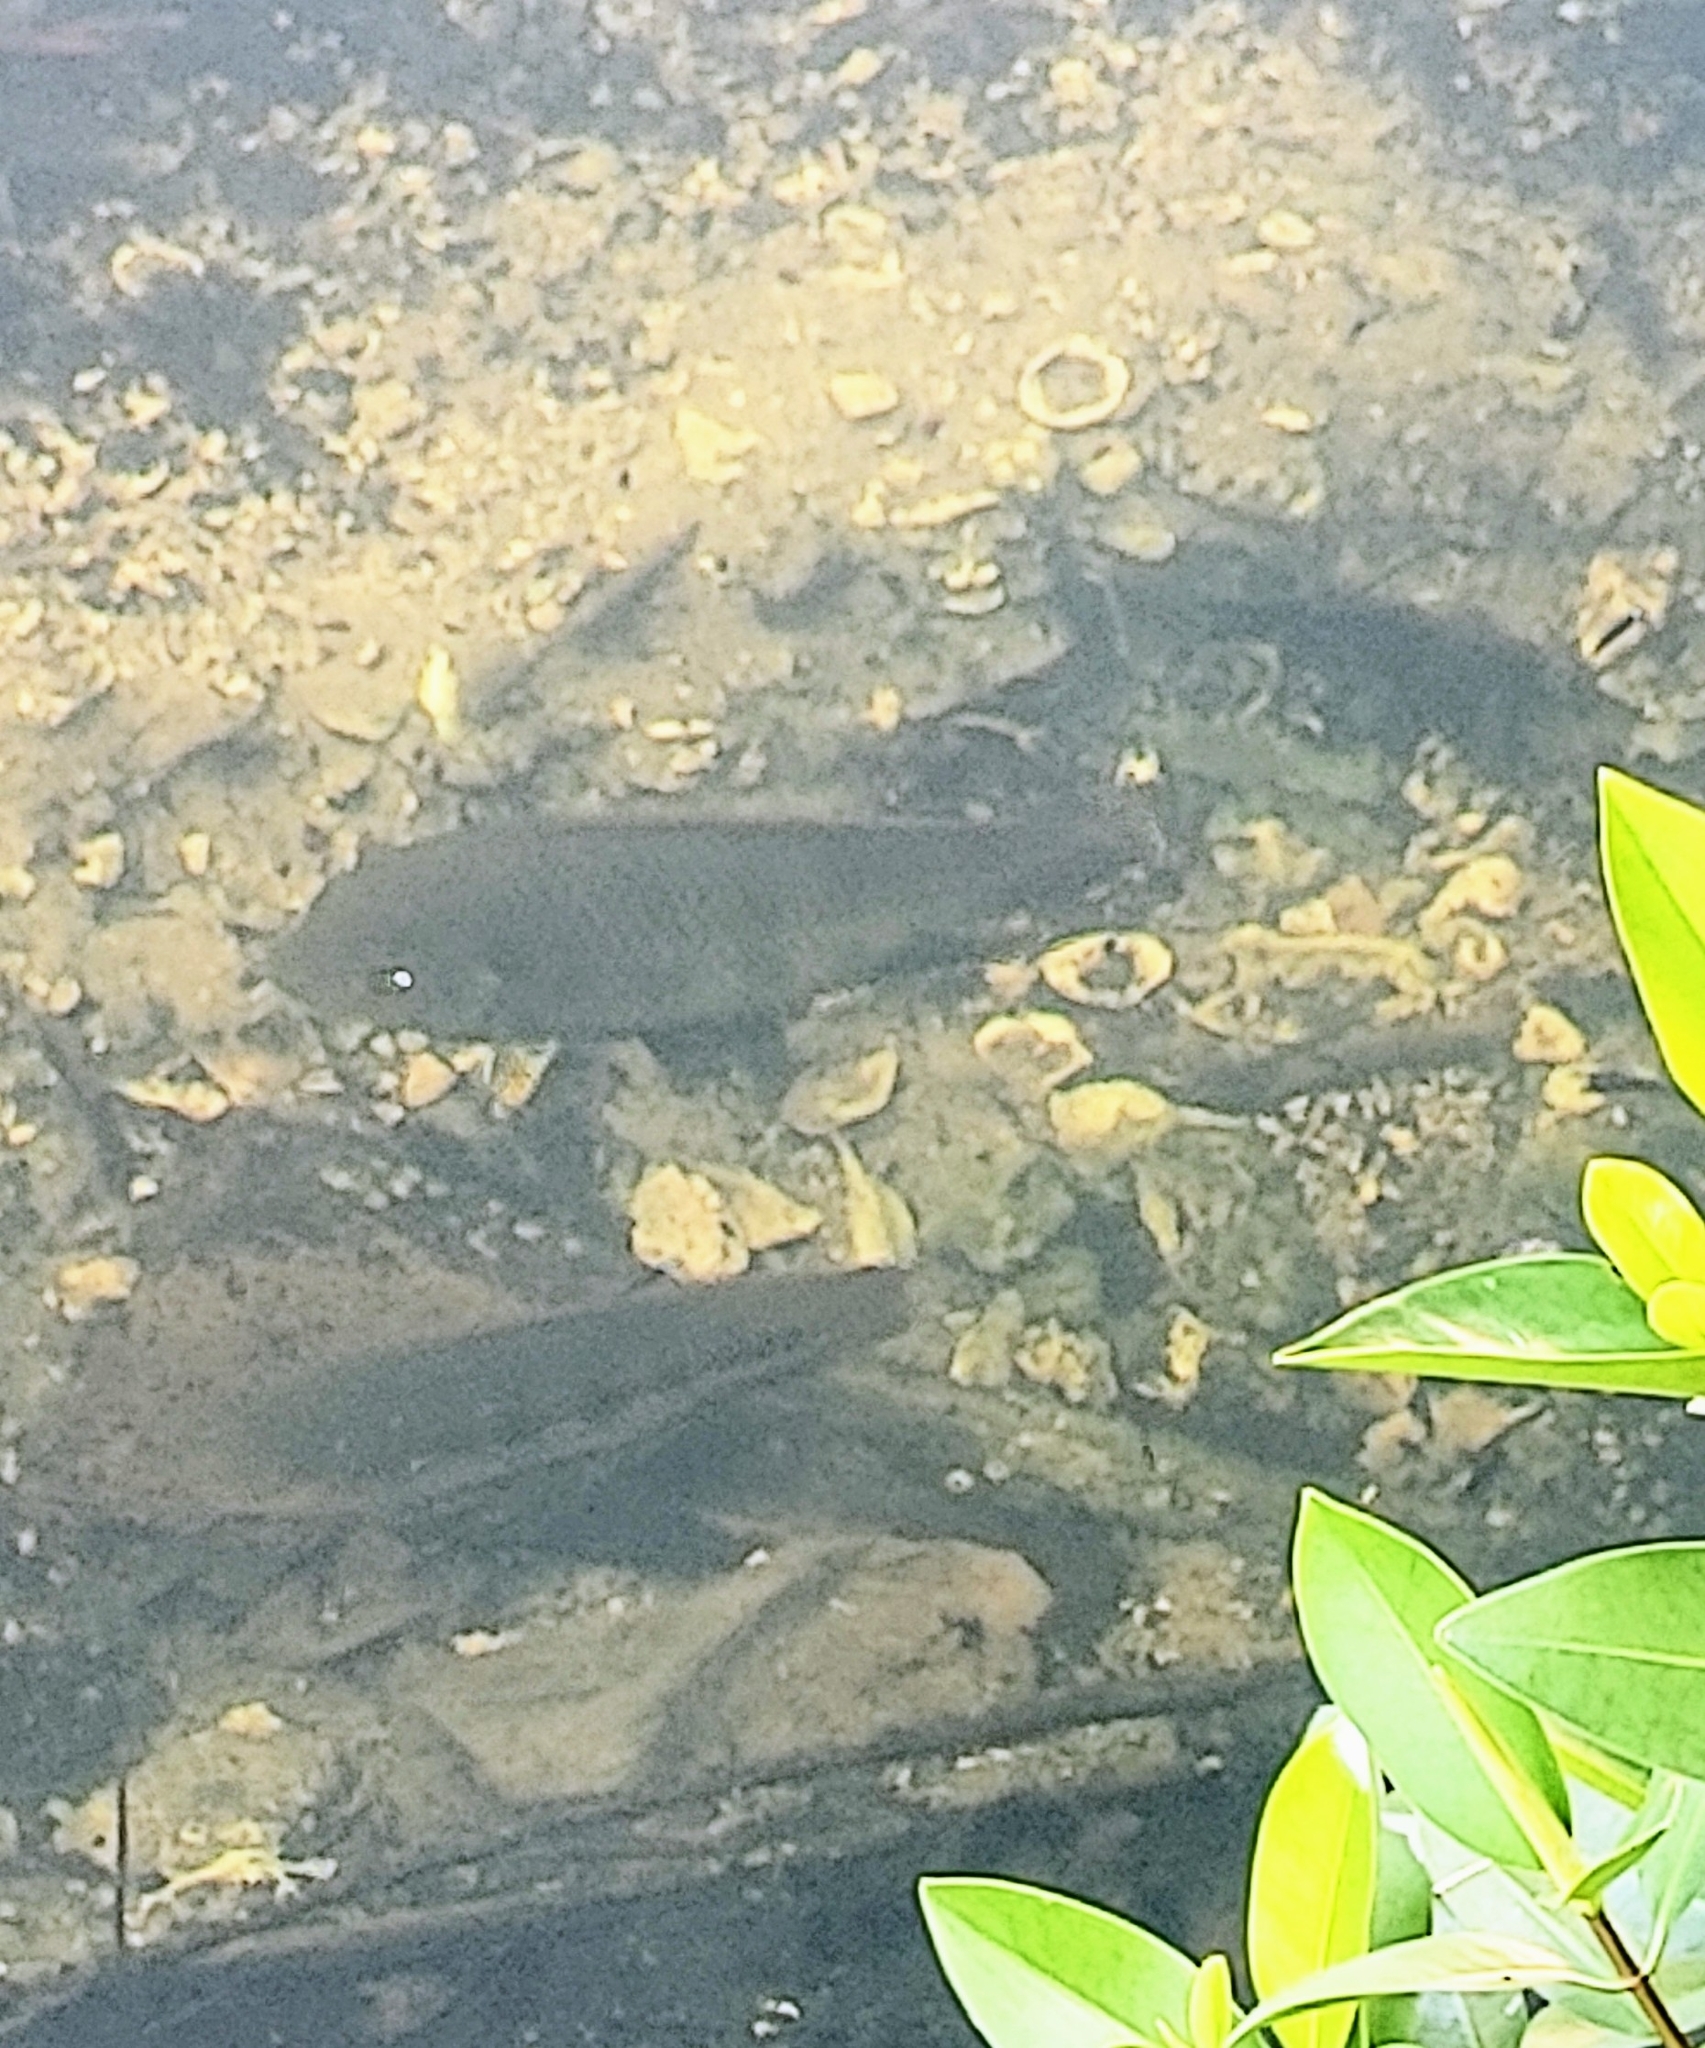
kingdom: Animalia
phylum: Chordata
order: Perciformes
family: Cichlidae
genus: Pelmatolapia
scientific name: Pelmatolapia mariae
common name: Spotted tilapia
